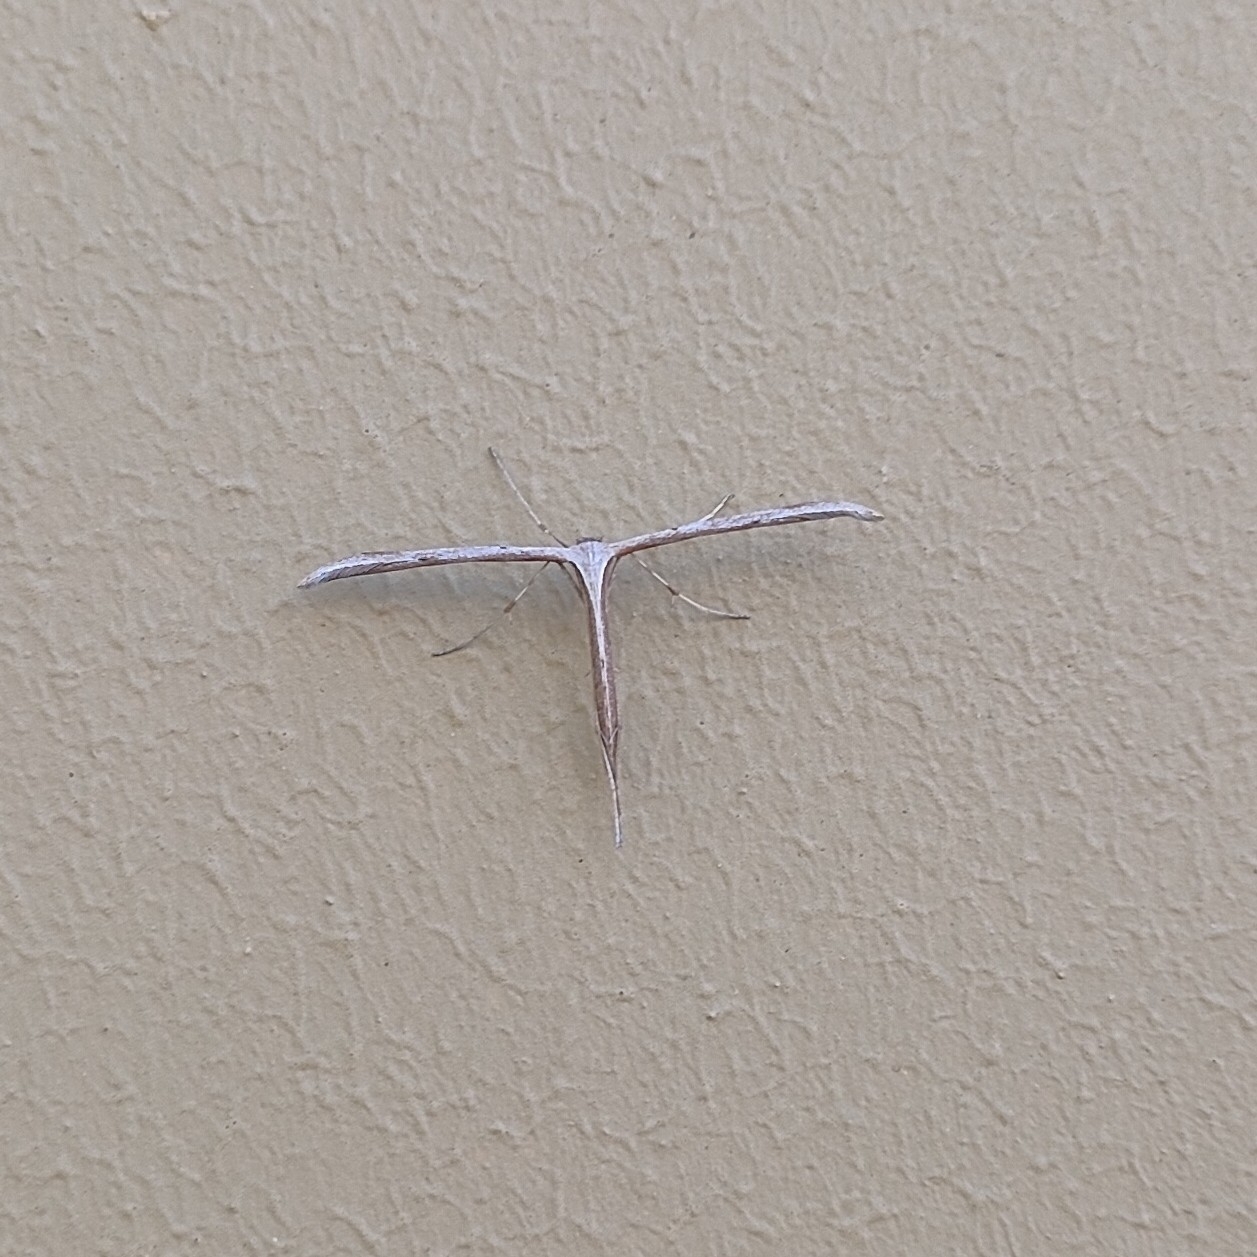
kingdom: Animalia
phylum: Arthropoda
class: Insecta
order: Lepidoptera
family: Pterophoridae
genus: Emmelina
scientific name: Emmelina monodactyla
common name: Common plume
